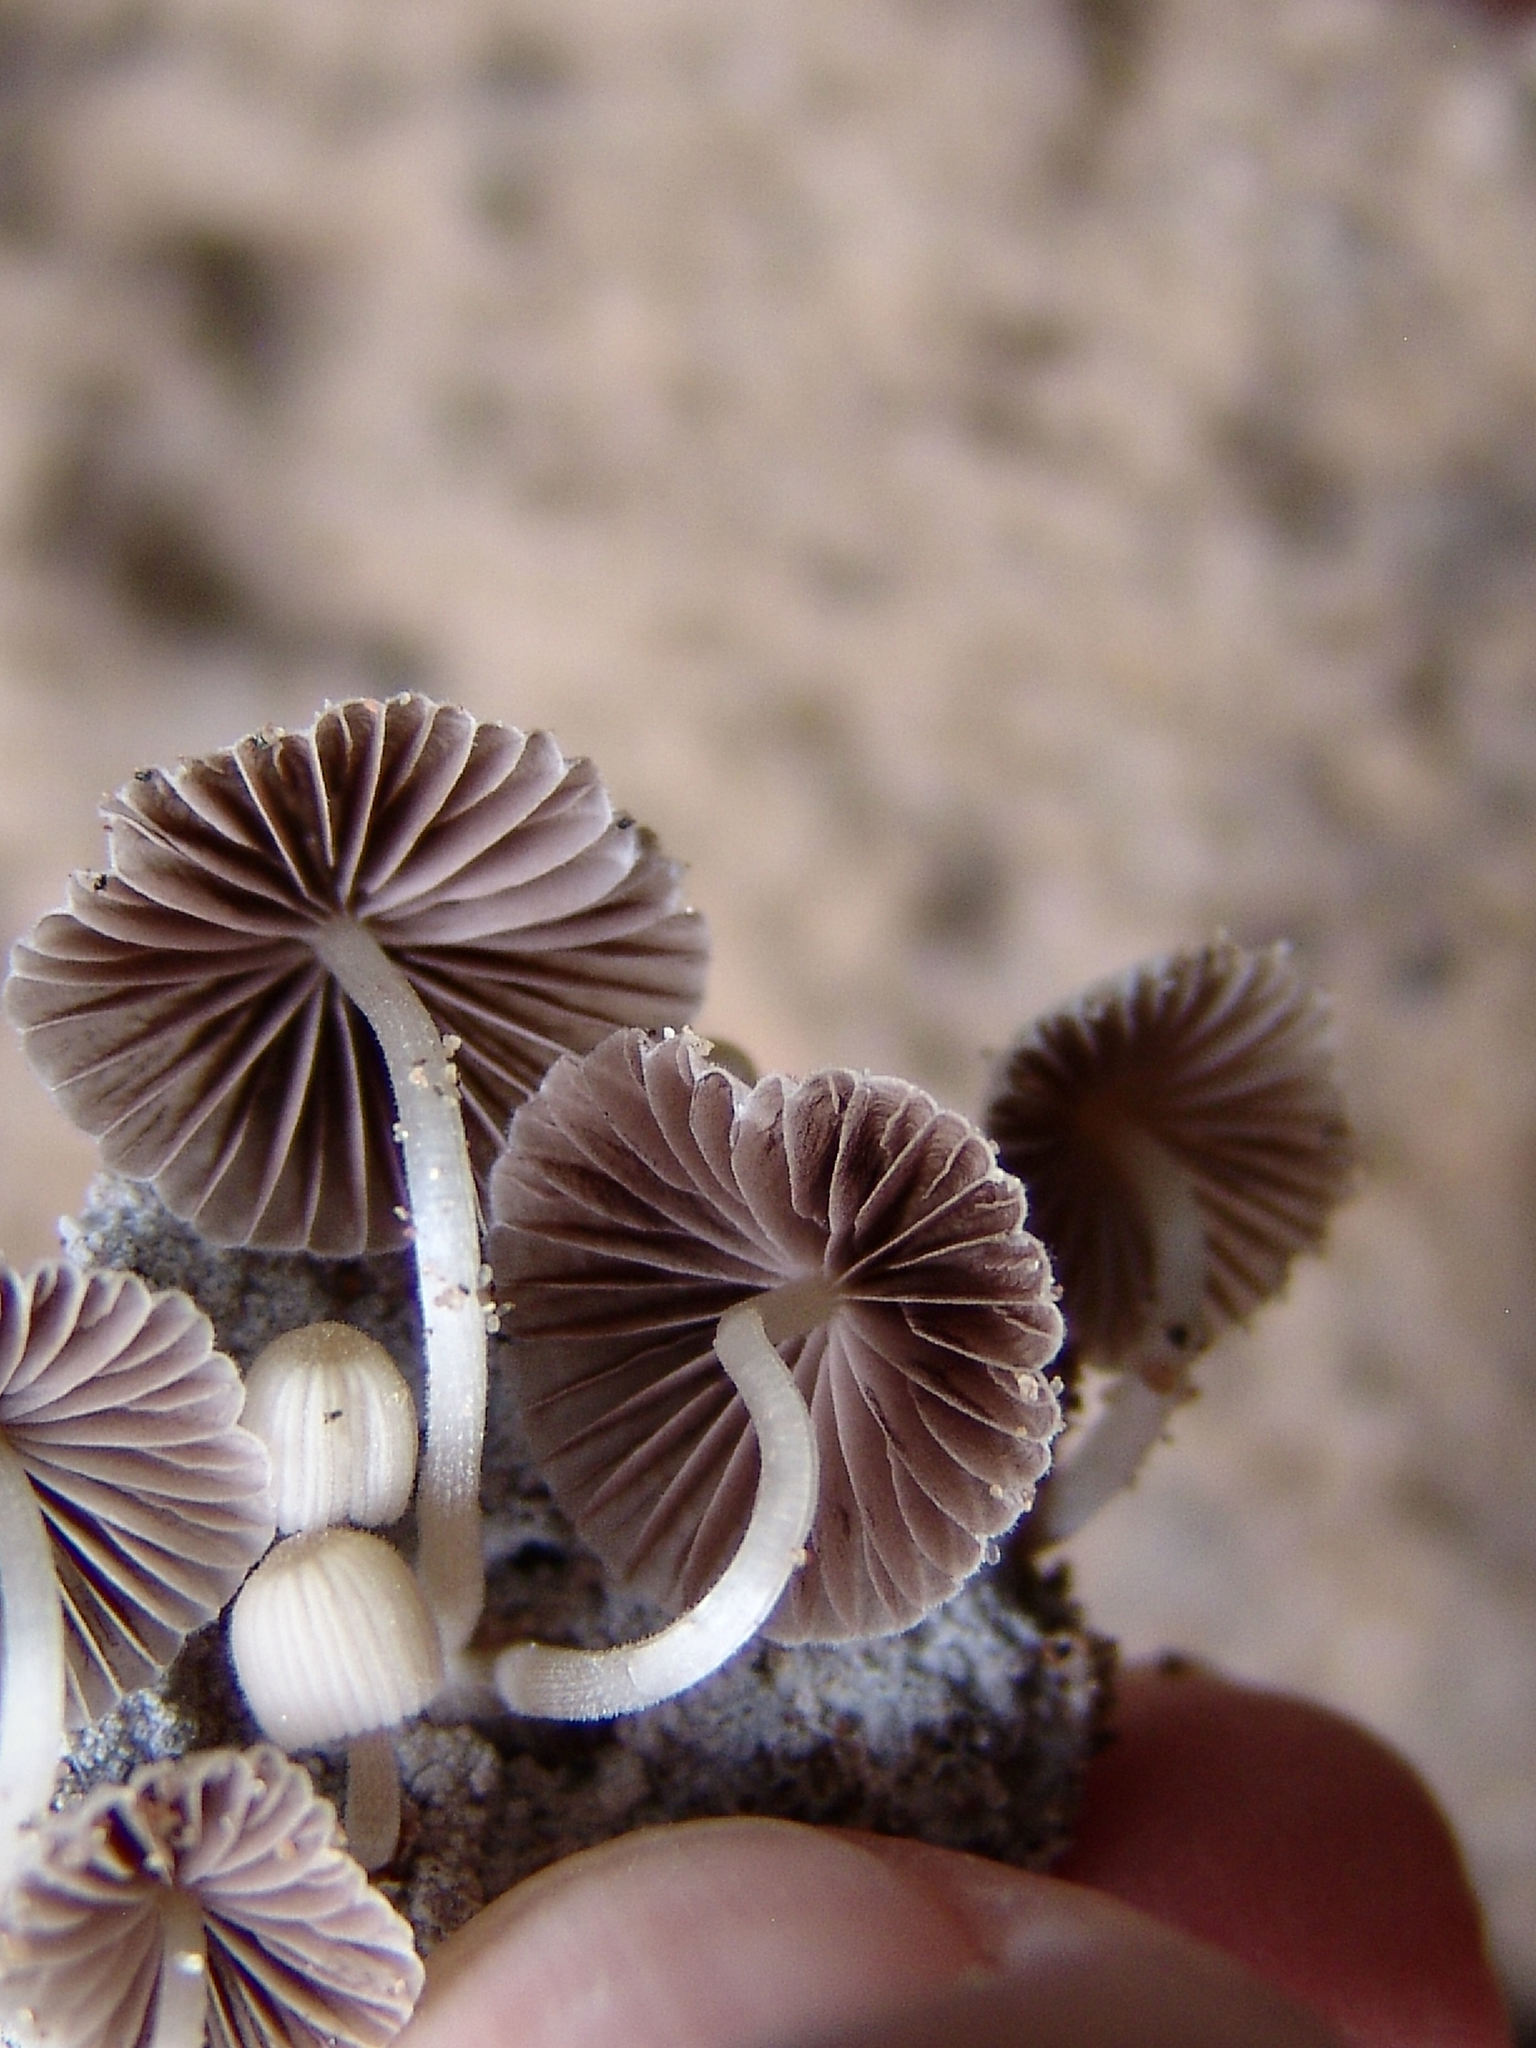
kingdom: Fungi
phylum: Basidiomycota
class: Agaricomycetes
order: Agaricales
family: Psathyrellaceae
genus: Coprinellus
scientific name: Coprinellus disseminatus
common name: Fairies' bonnets
